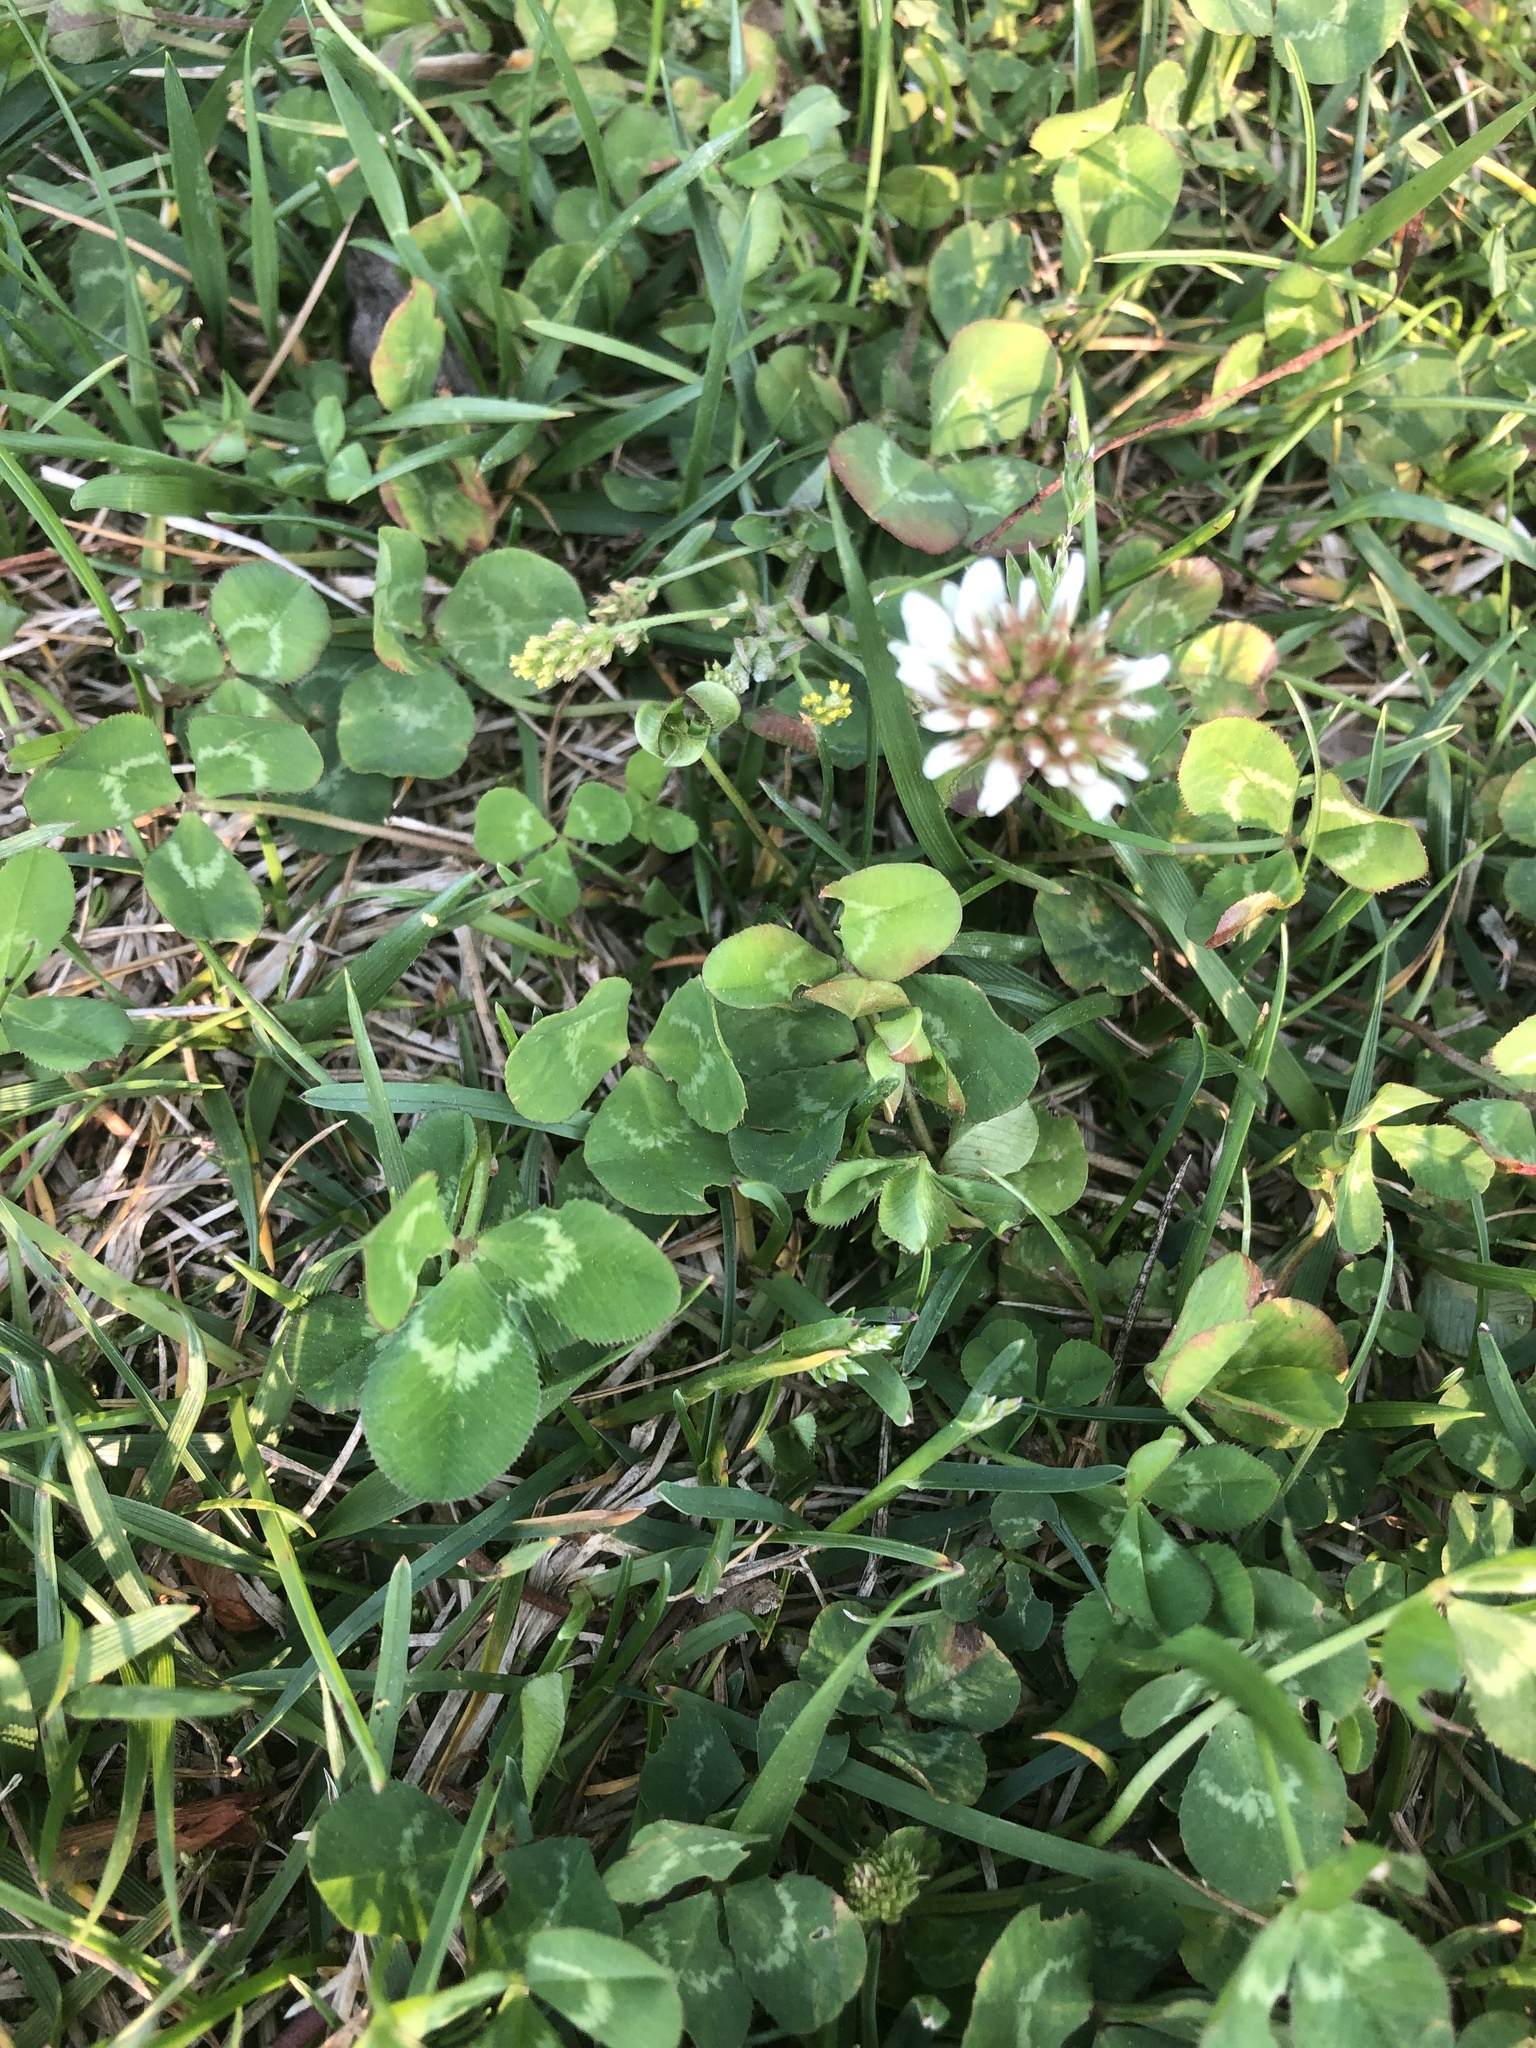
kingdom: Plantae
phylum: Tracheophyta
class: Magnoliopsida
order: Fabales
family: Fabaceae
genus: Trifolium
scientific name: Trifolium repens
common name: White clover
